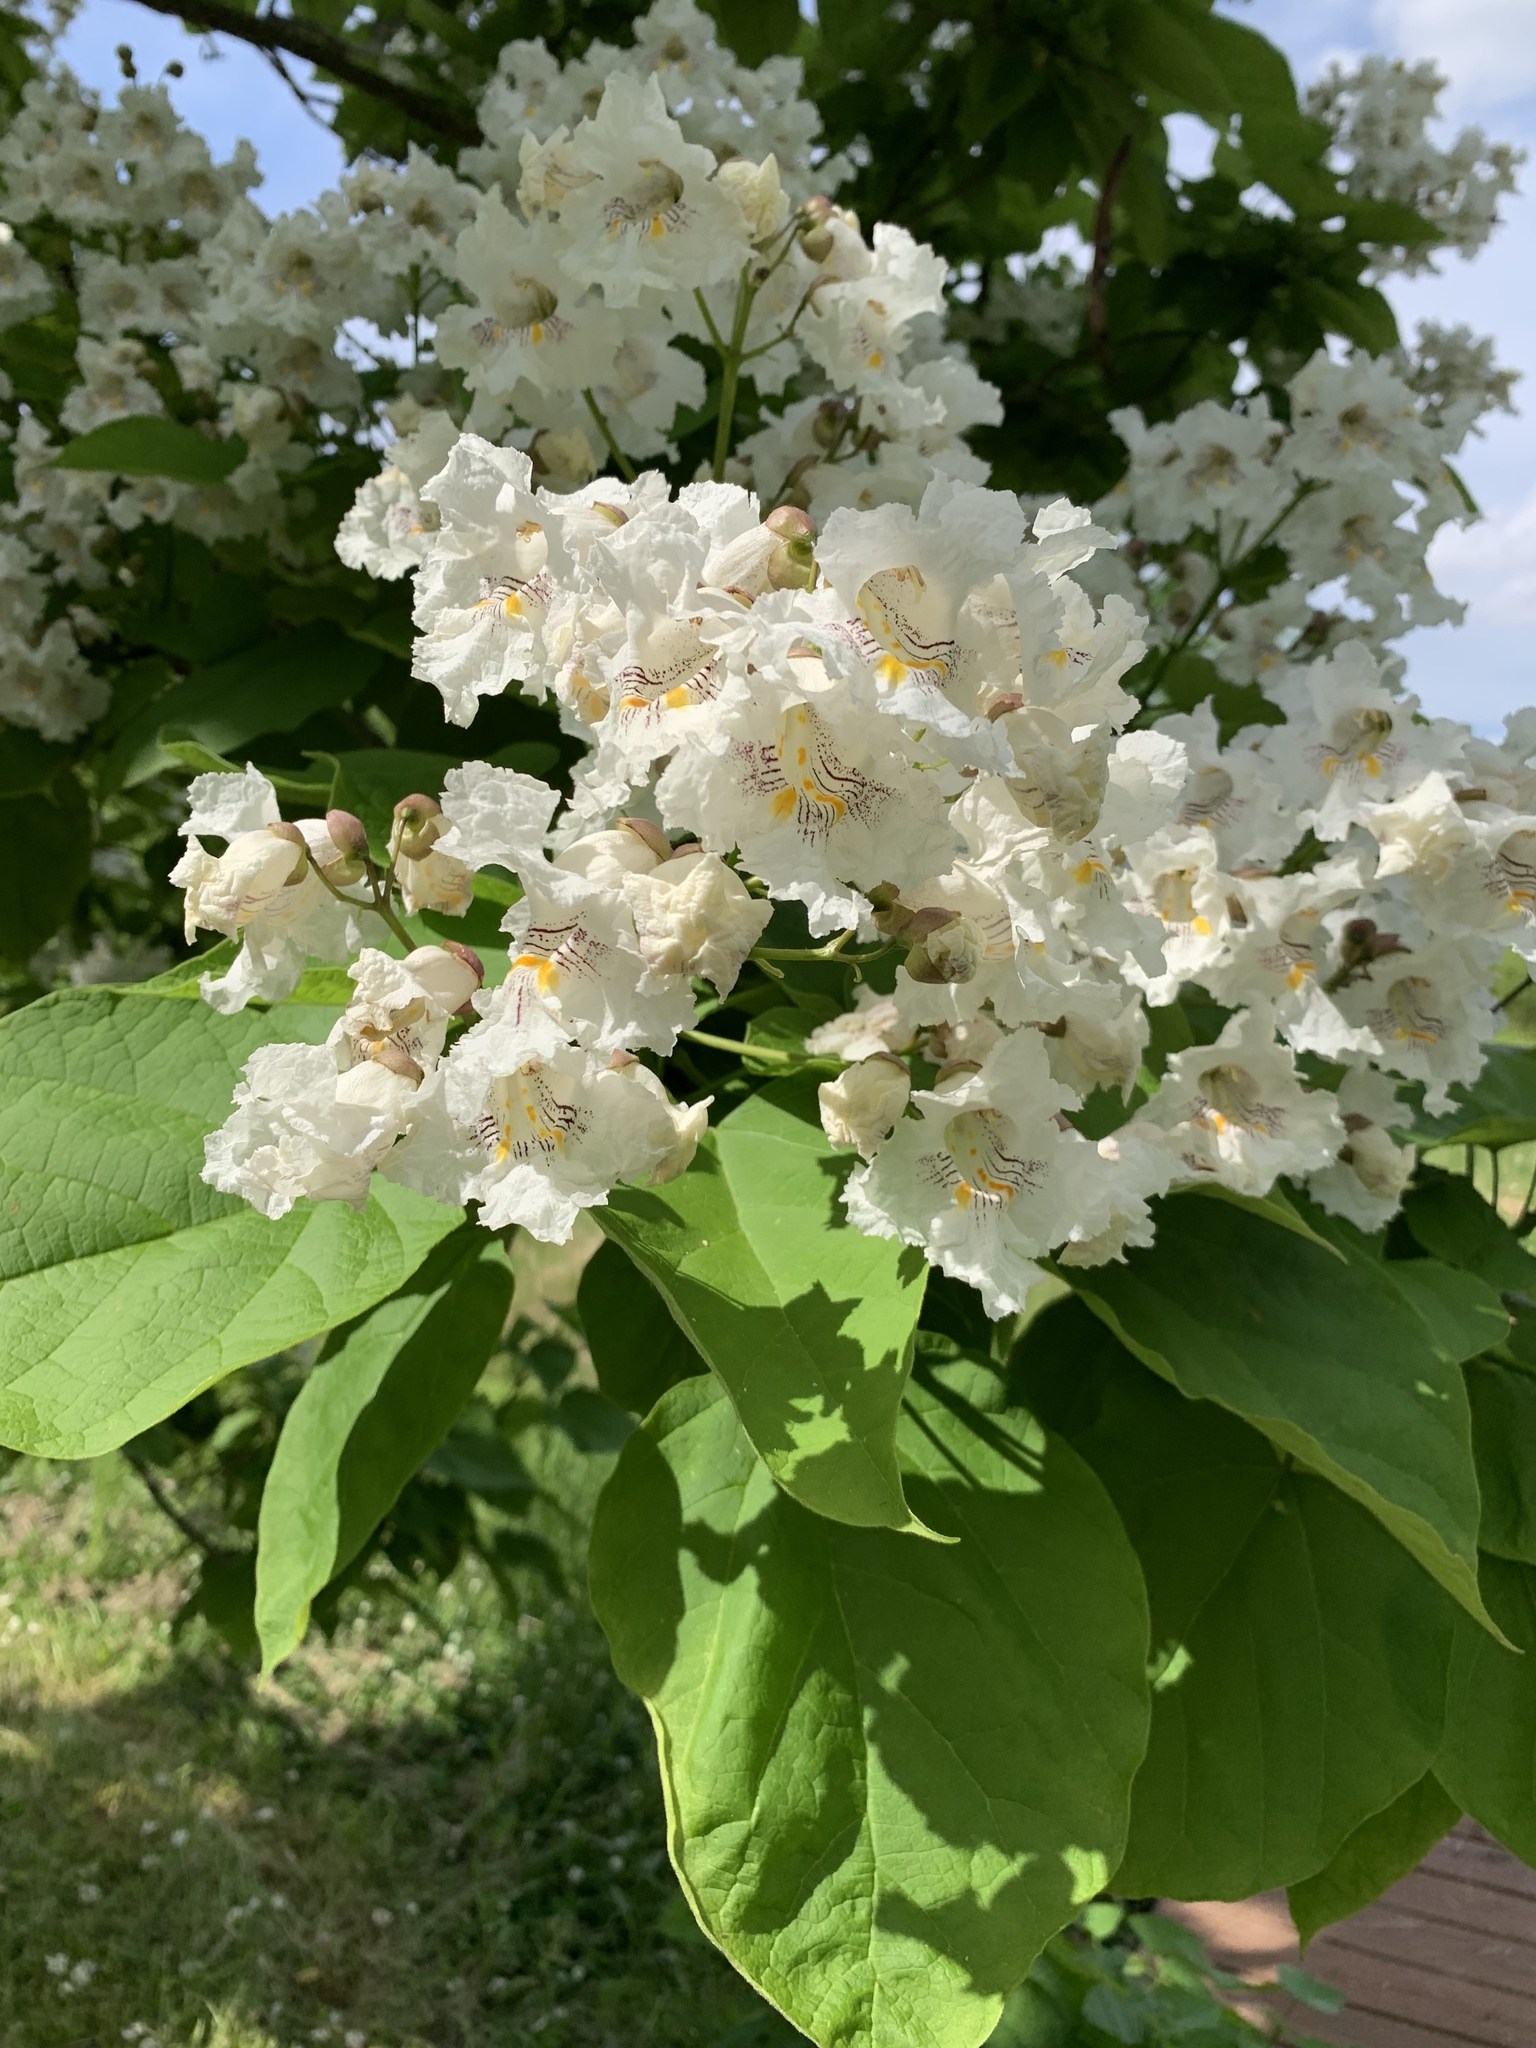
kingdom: Plantae
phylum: Tracheophyta
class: Magnoliopsida
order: Lamiales
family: Bignoniaceae
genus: Catalpa
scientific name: Catalpa speciosa
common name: Northern catalpa
